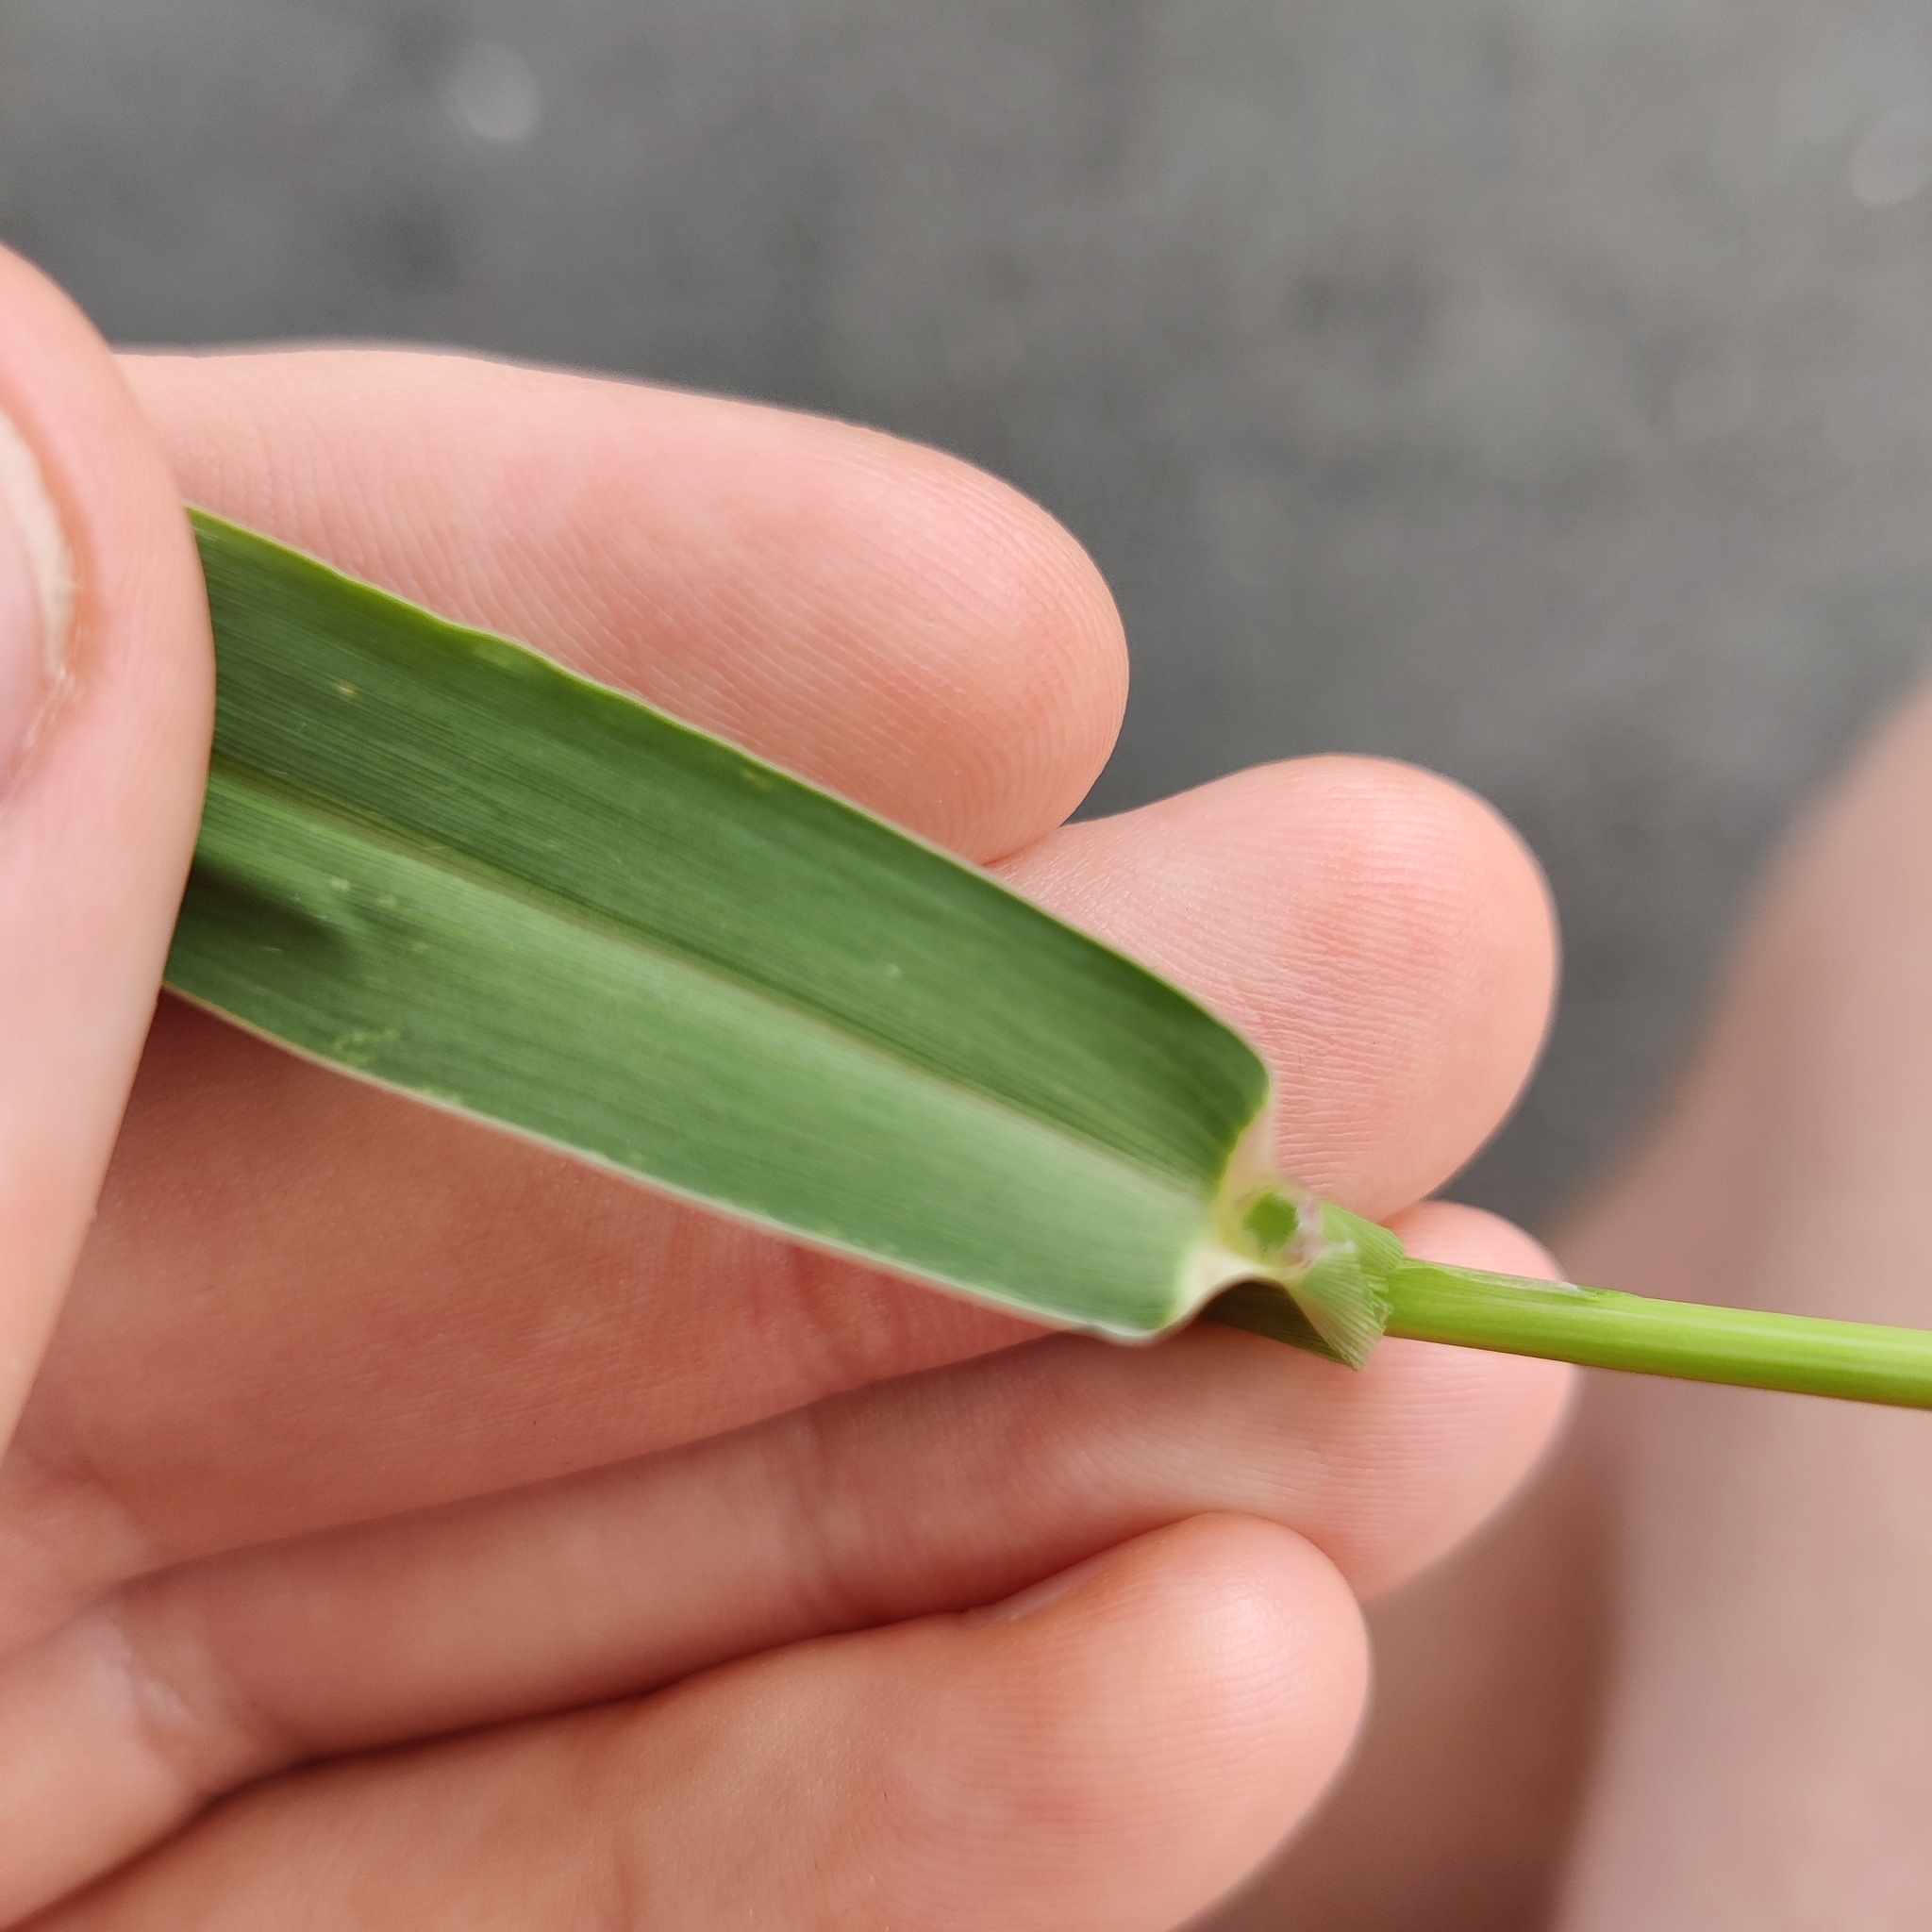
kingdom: Plantae
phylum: Tracheophyta
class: Liliopsida
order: Poales
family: Poaceae
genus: Setaria
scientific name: Setaria parviflora
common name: Knotroot bristle-grass
